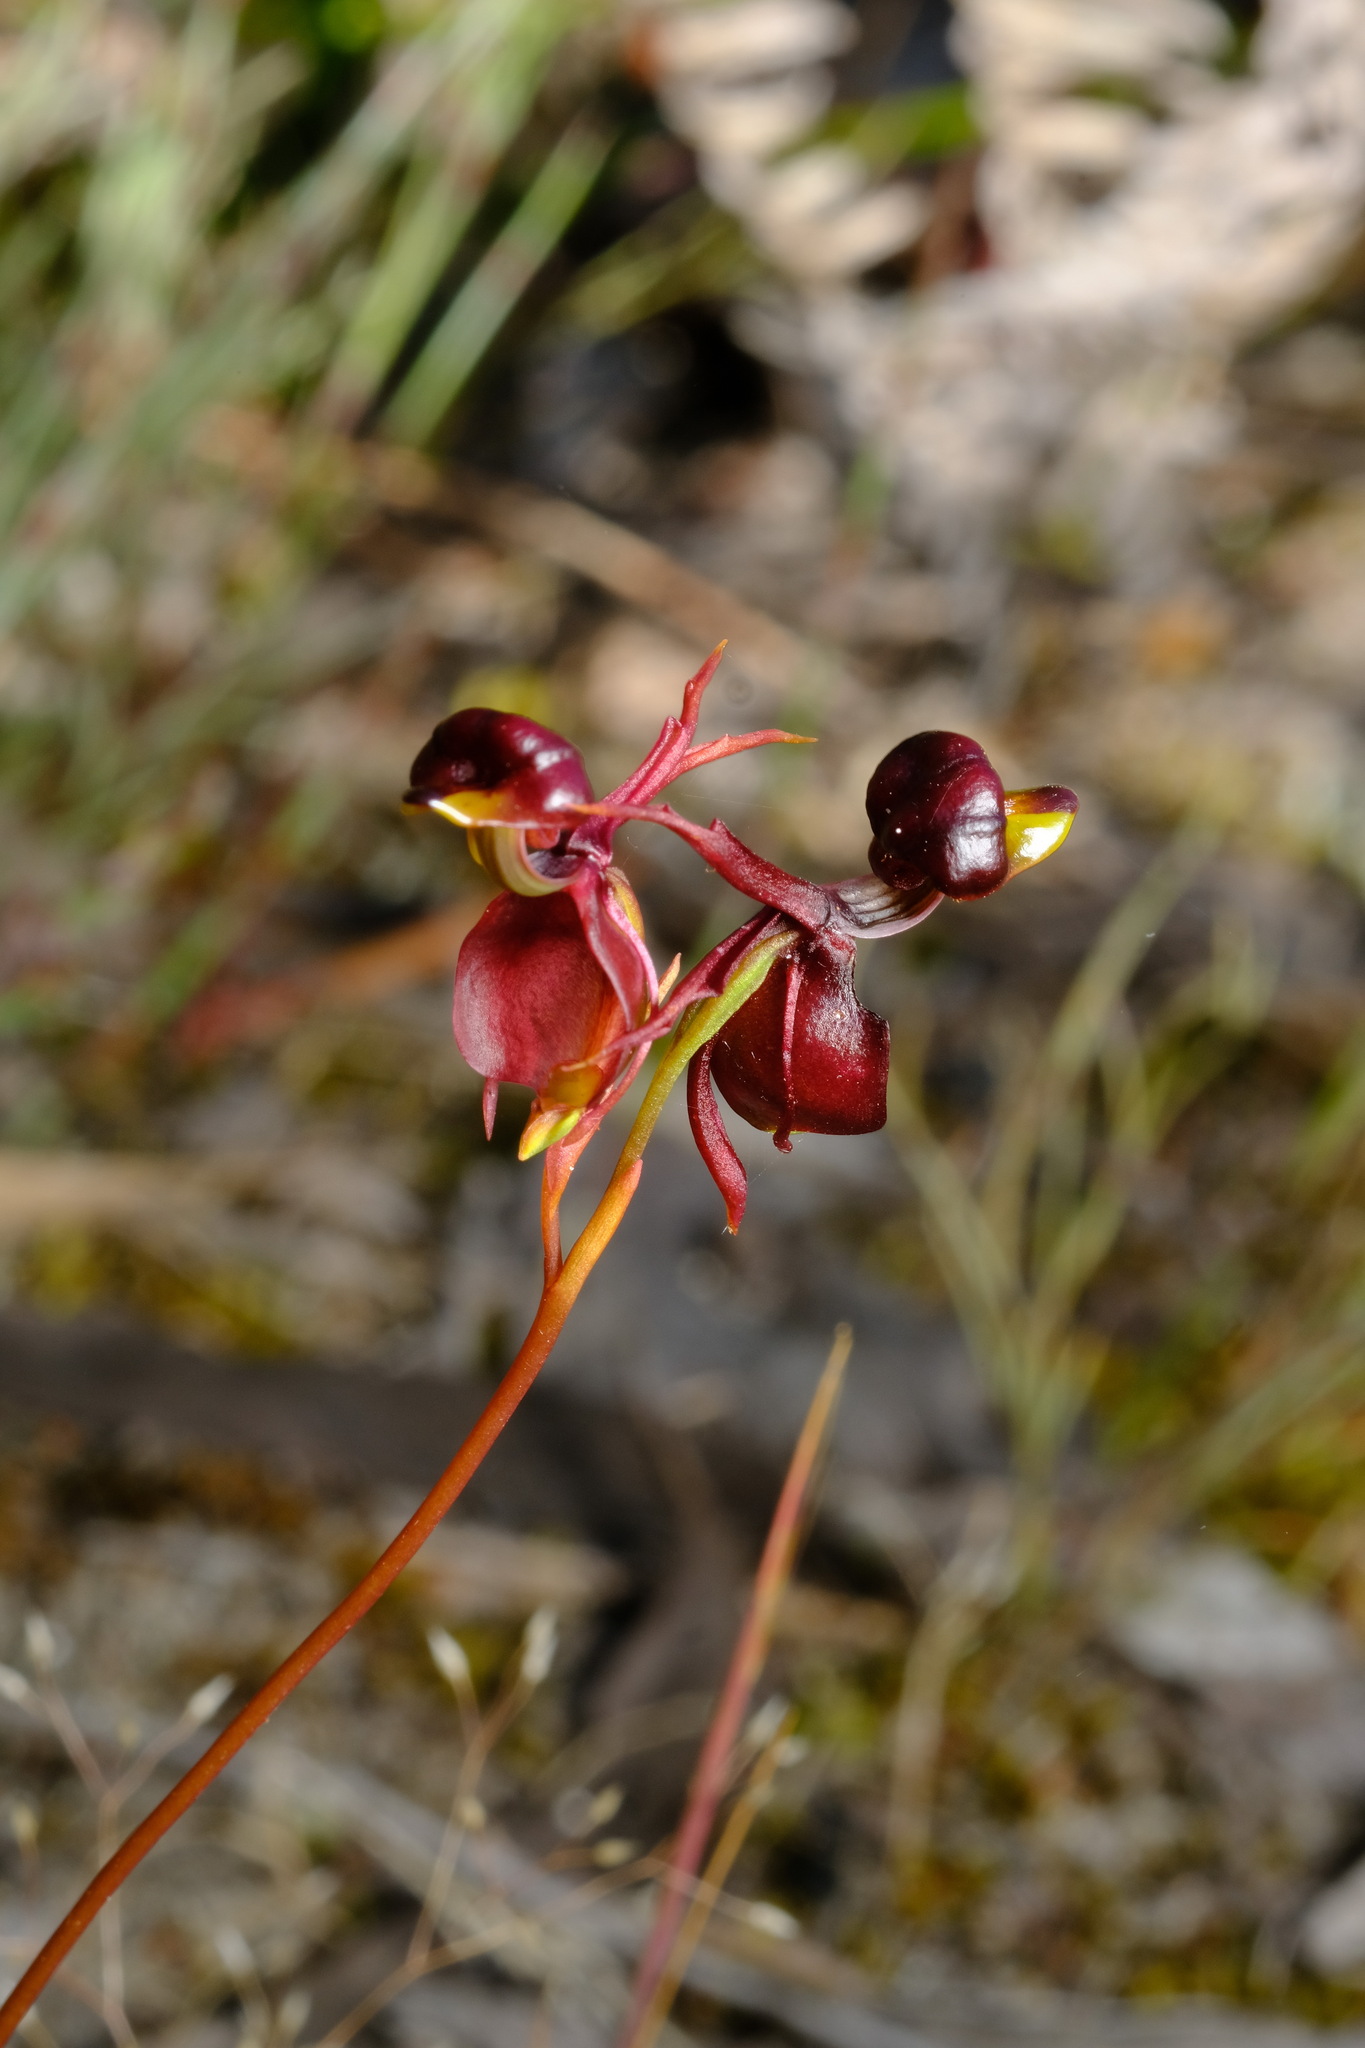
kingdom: Plantae
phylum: Tracheophyta
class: Liliopsida
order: Asparagales
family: Orchidaceae
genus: Caleana
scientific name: Caleana major
